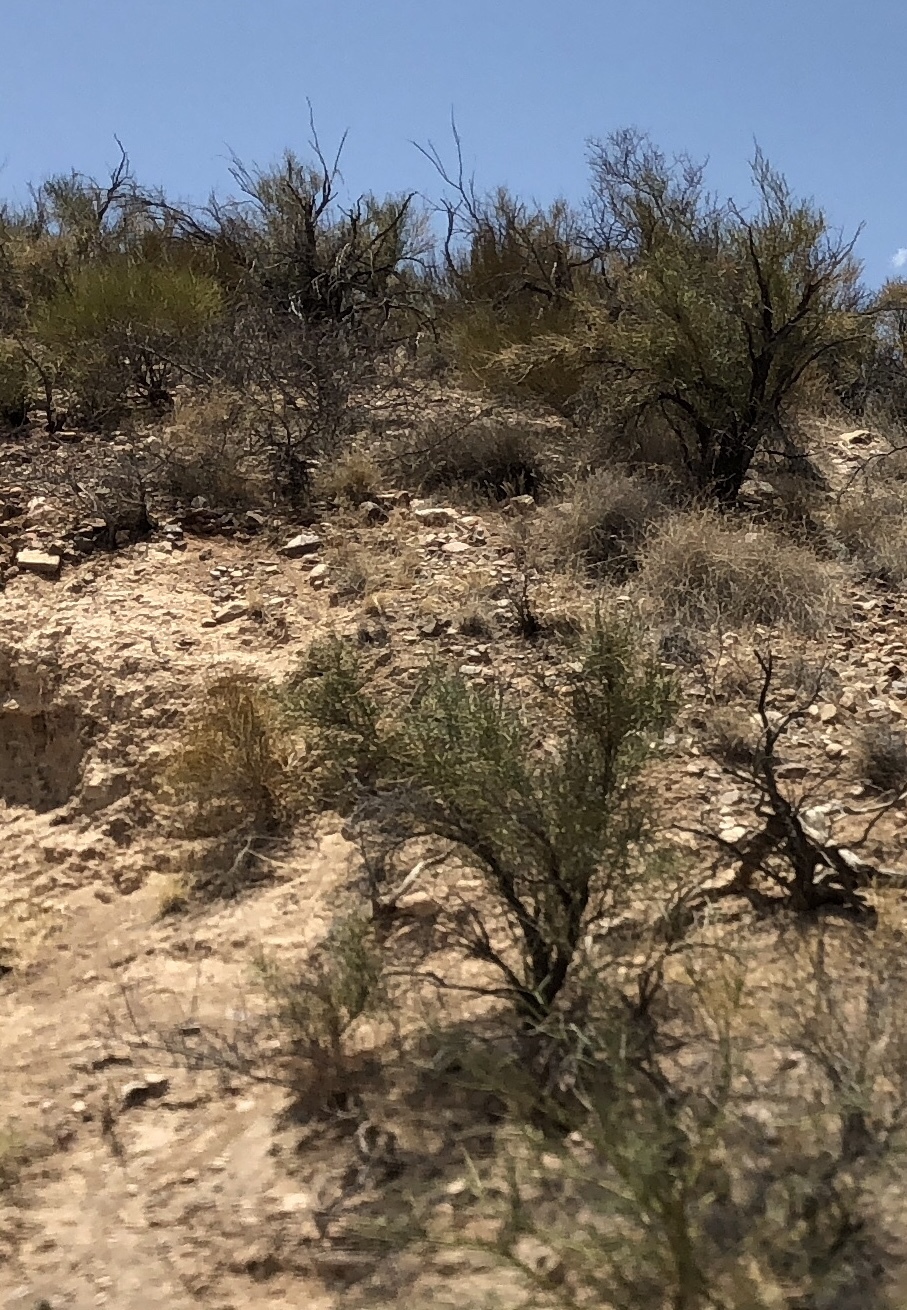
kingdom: Plantae
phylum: Tracheophyta
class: Magnoliopsida
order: Celastrales
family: Celastraceae
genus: Canotia
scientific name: Canotia holacantha
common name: Crucifixion thorns
